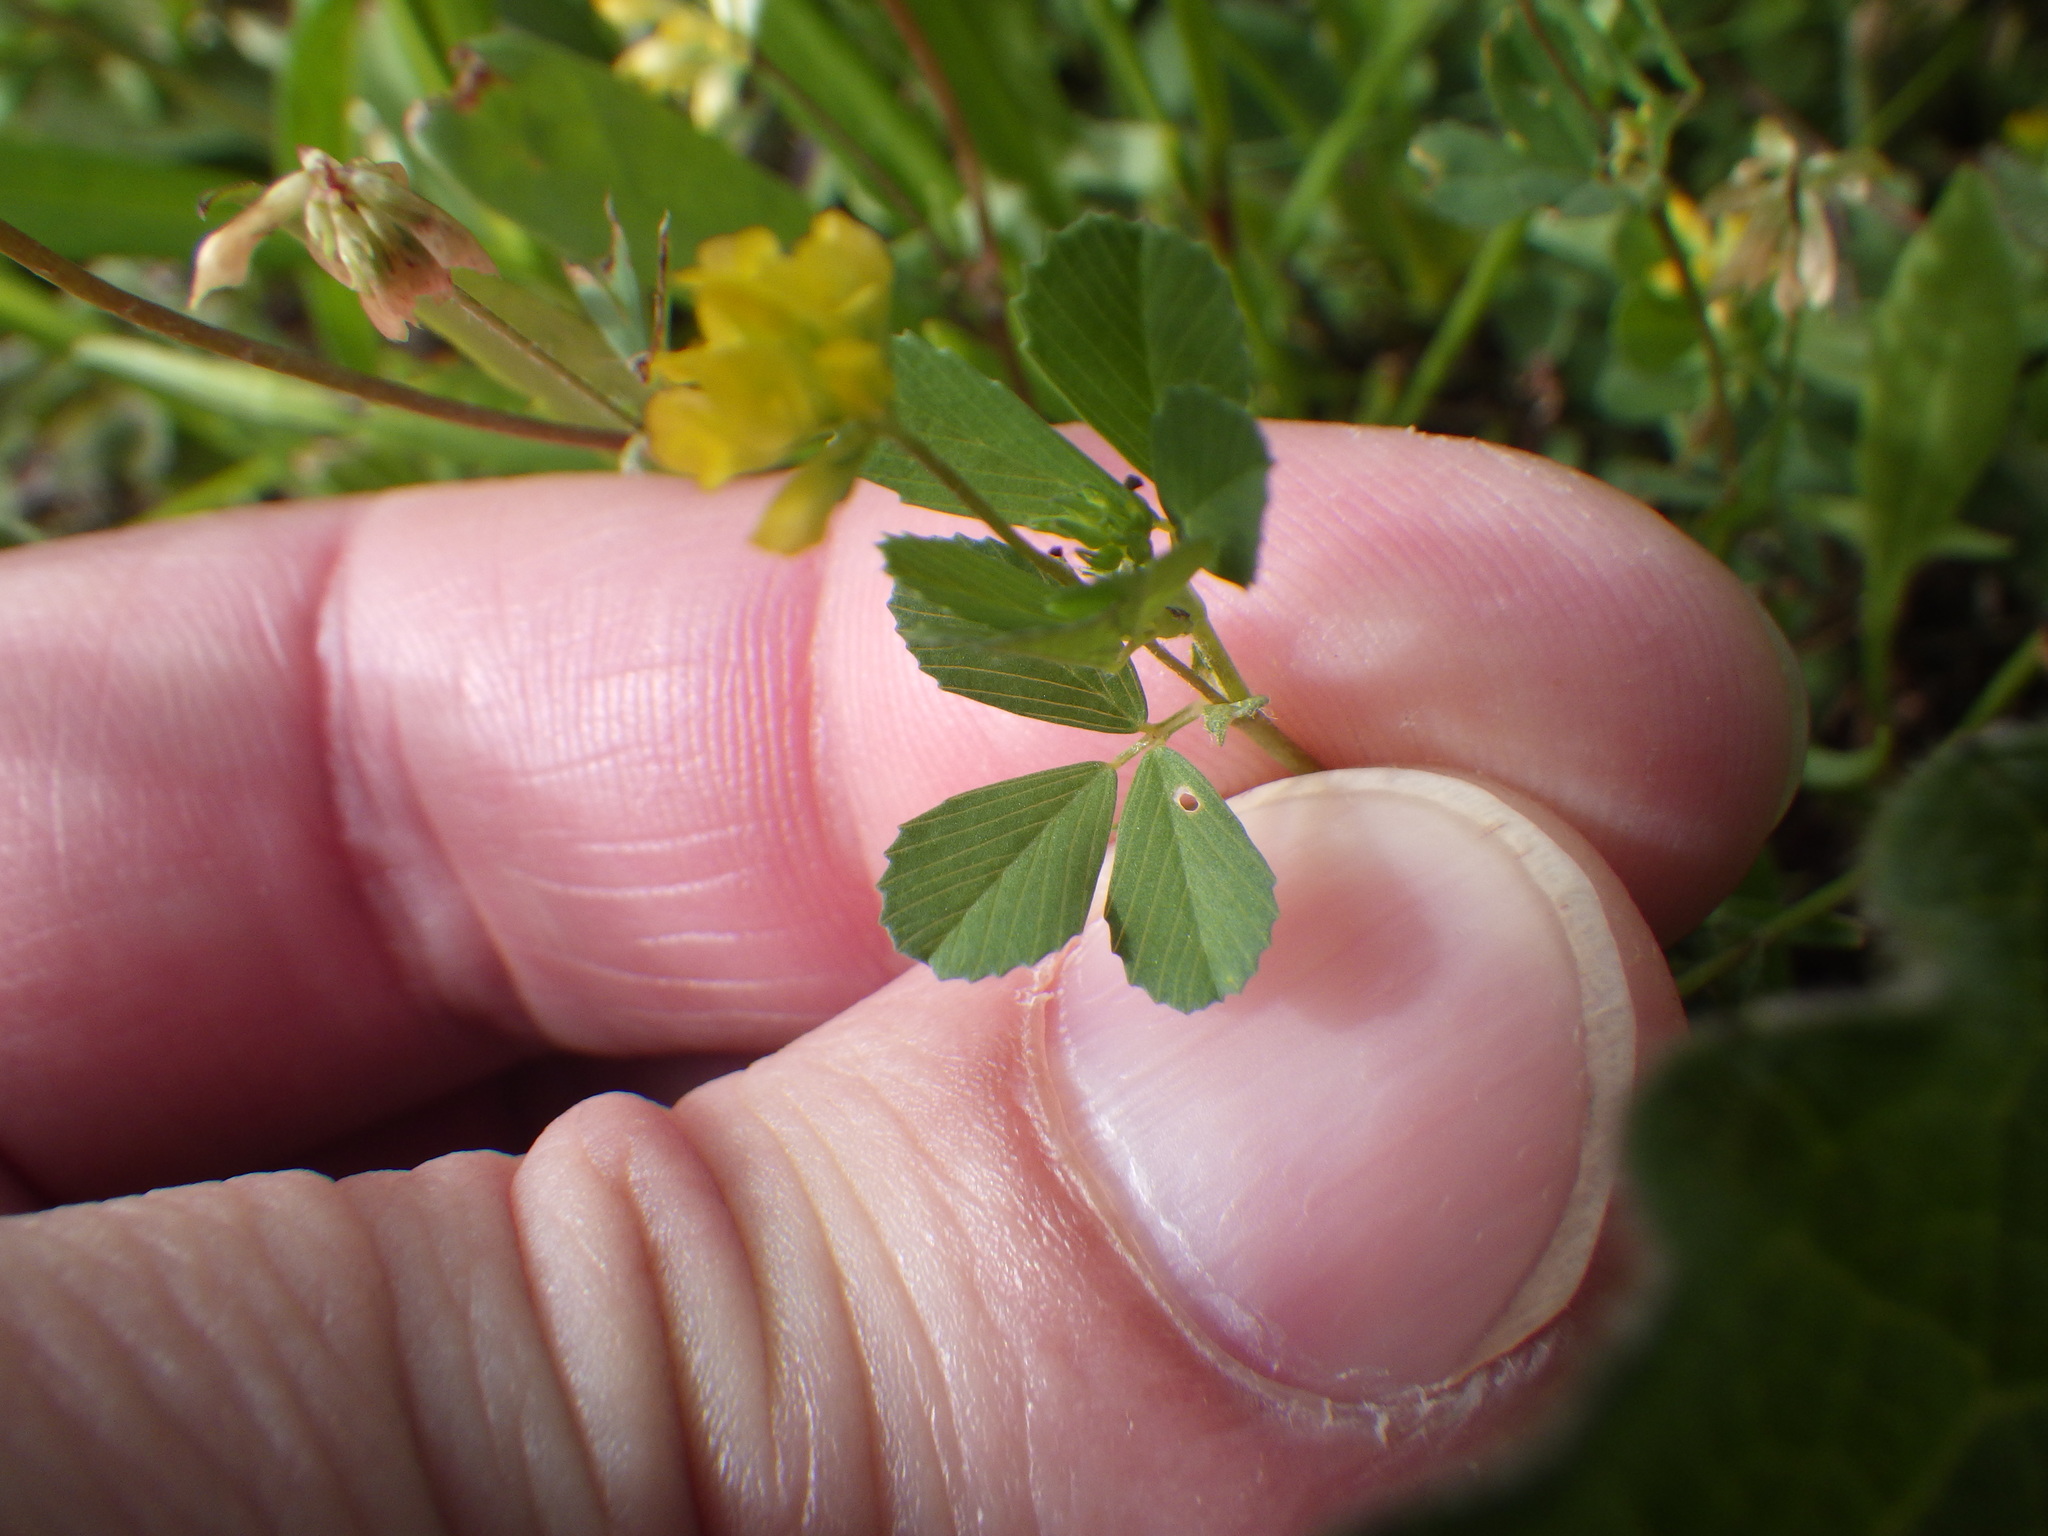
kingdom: Plantae
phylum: Tracheophyta
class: Magnoliopsida
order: Fabales
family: Fabaceae
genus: Trifolium
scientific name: Trifolium dubium
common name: Suckling clover
